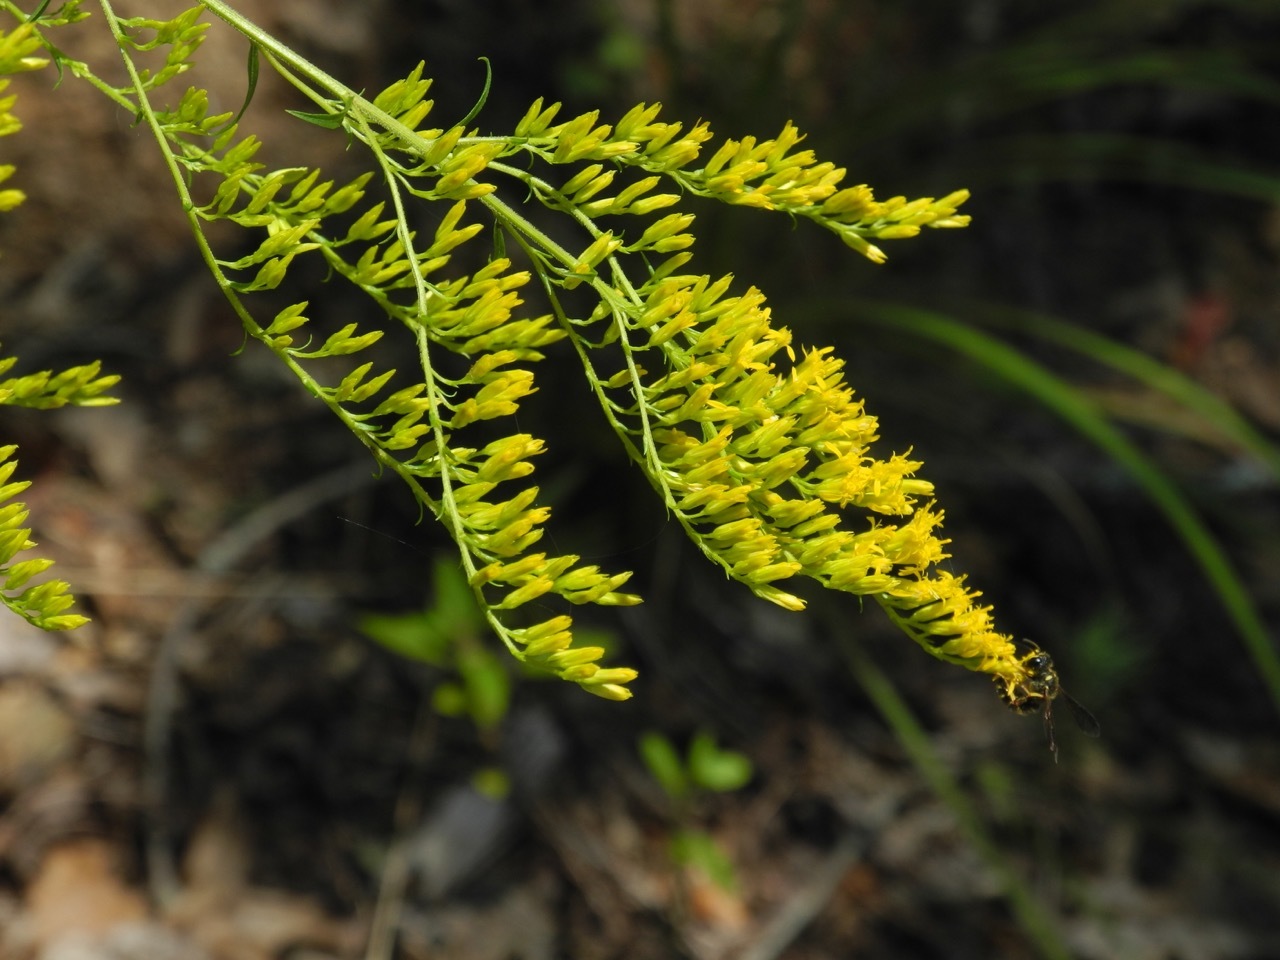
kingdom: Plantae
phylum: Tracheophyta
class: Magnoliopsida
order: Asterales
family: Asteraceae
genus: Solidago
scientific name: Solidago odora
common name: Anise-scented goldenrod
